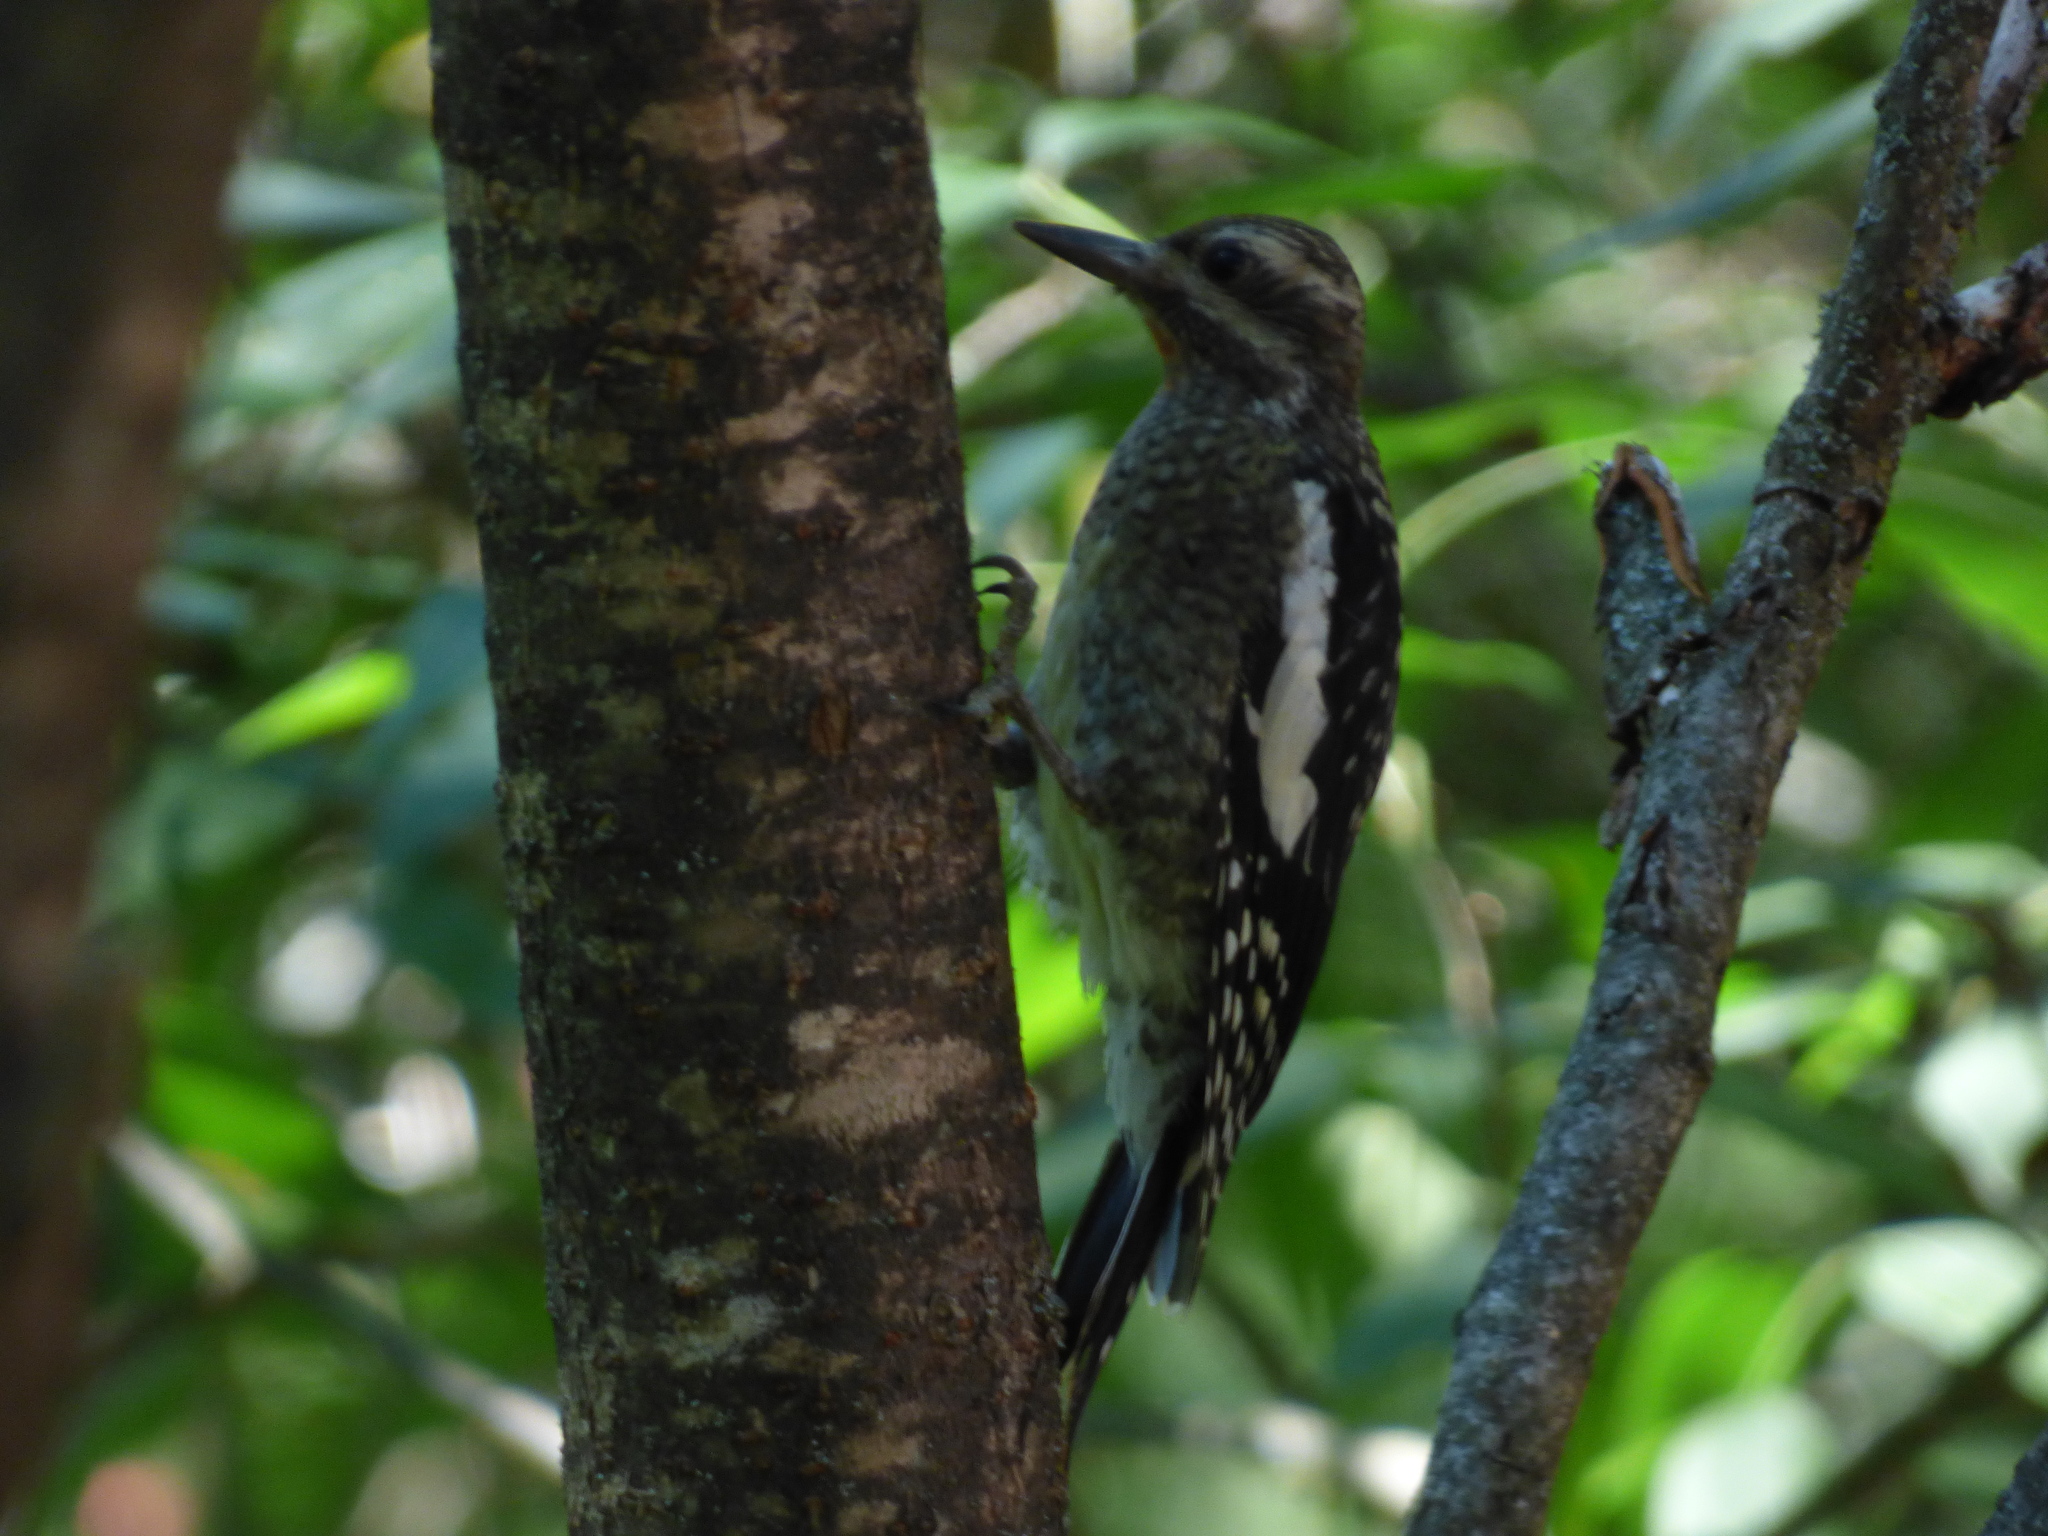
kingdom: Animalia
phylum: Chordata
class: Aves
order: Piciformes
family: Picidae
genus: Sphyrapicus
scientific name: Sphyrapicus varius
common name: Yellow-bellied sapsucker
